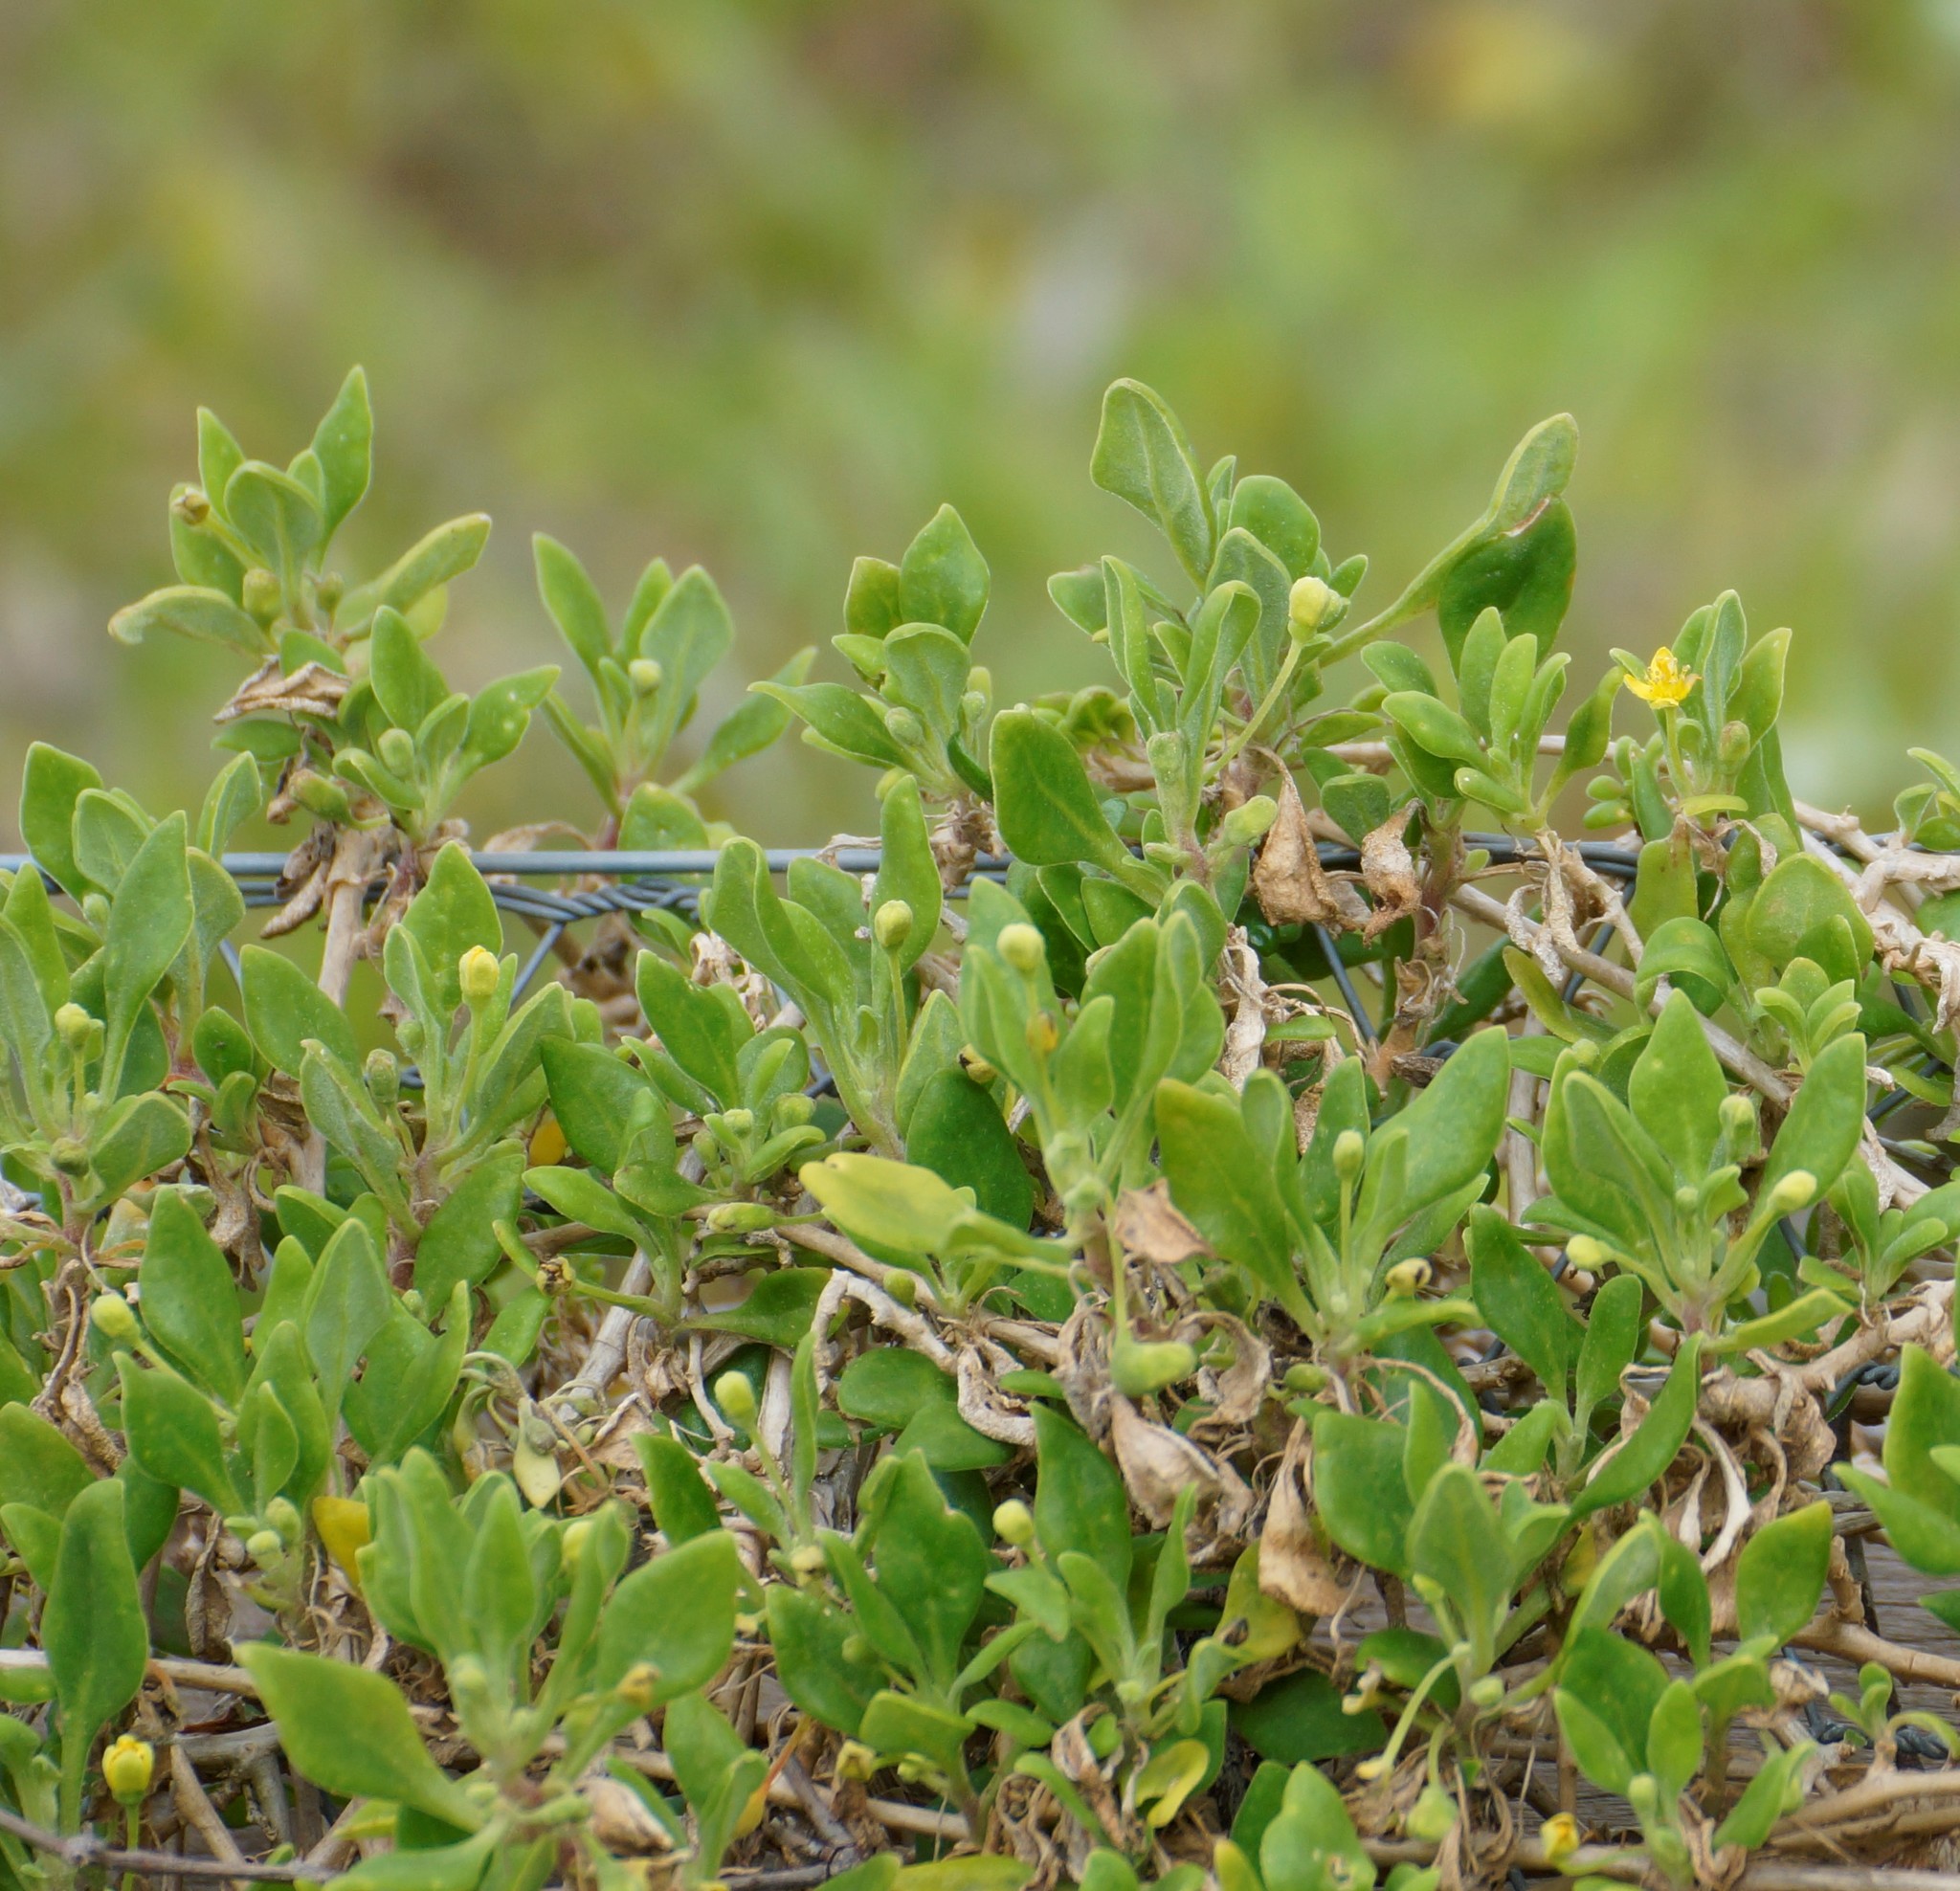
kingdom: Plantae
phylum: Tracheophyta
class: Magnoliopsida
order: Caryophyllales
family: Aizoaceae
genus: Tetragonia
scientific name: Tetragonia implexicoma
